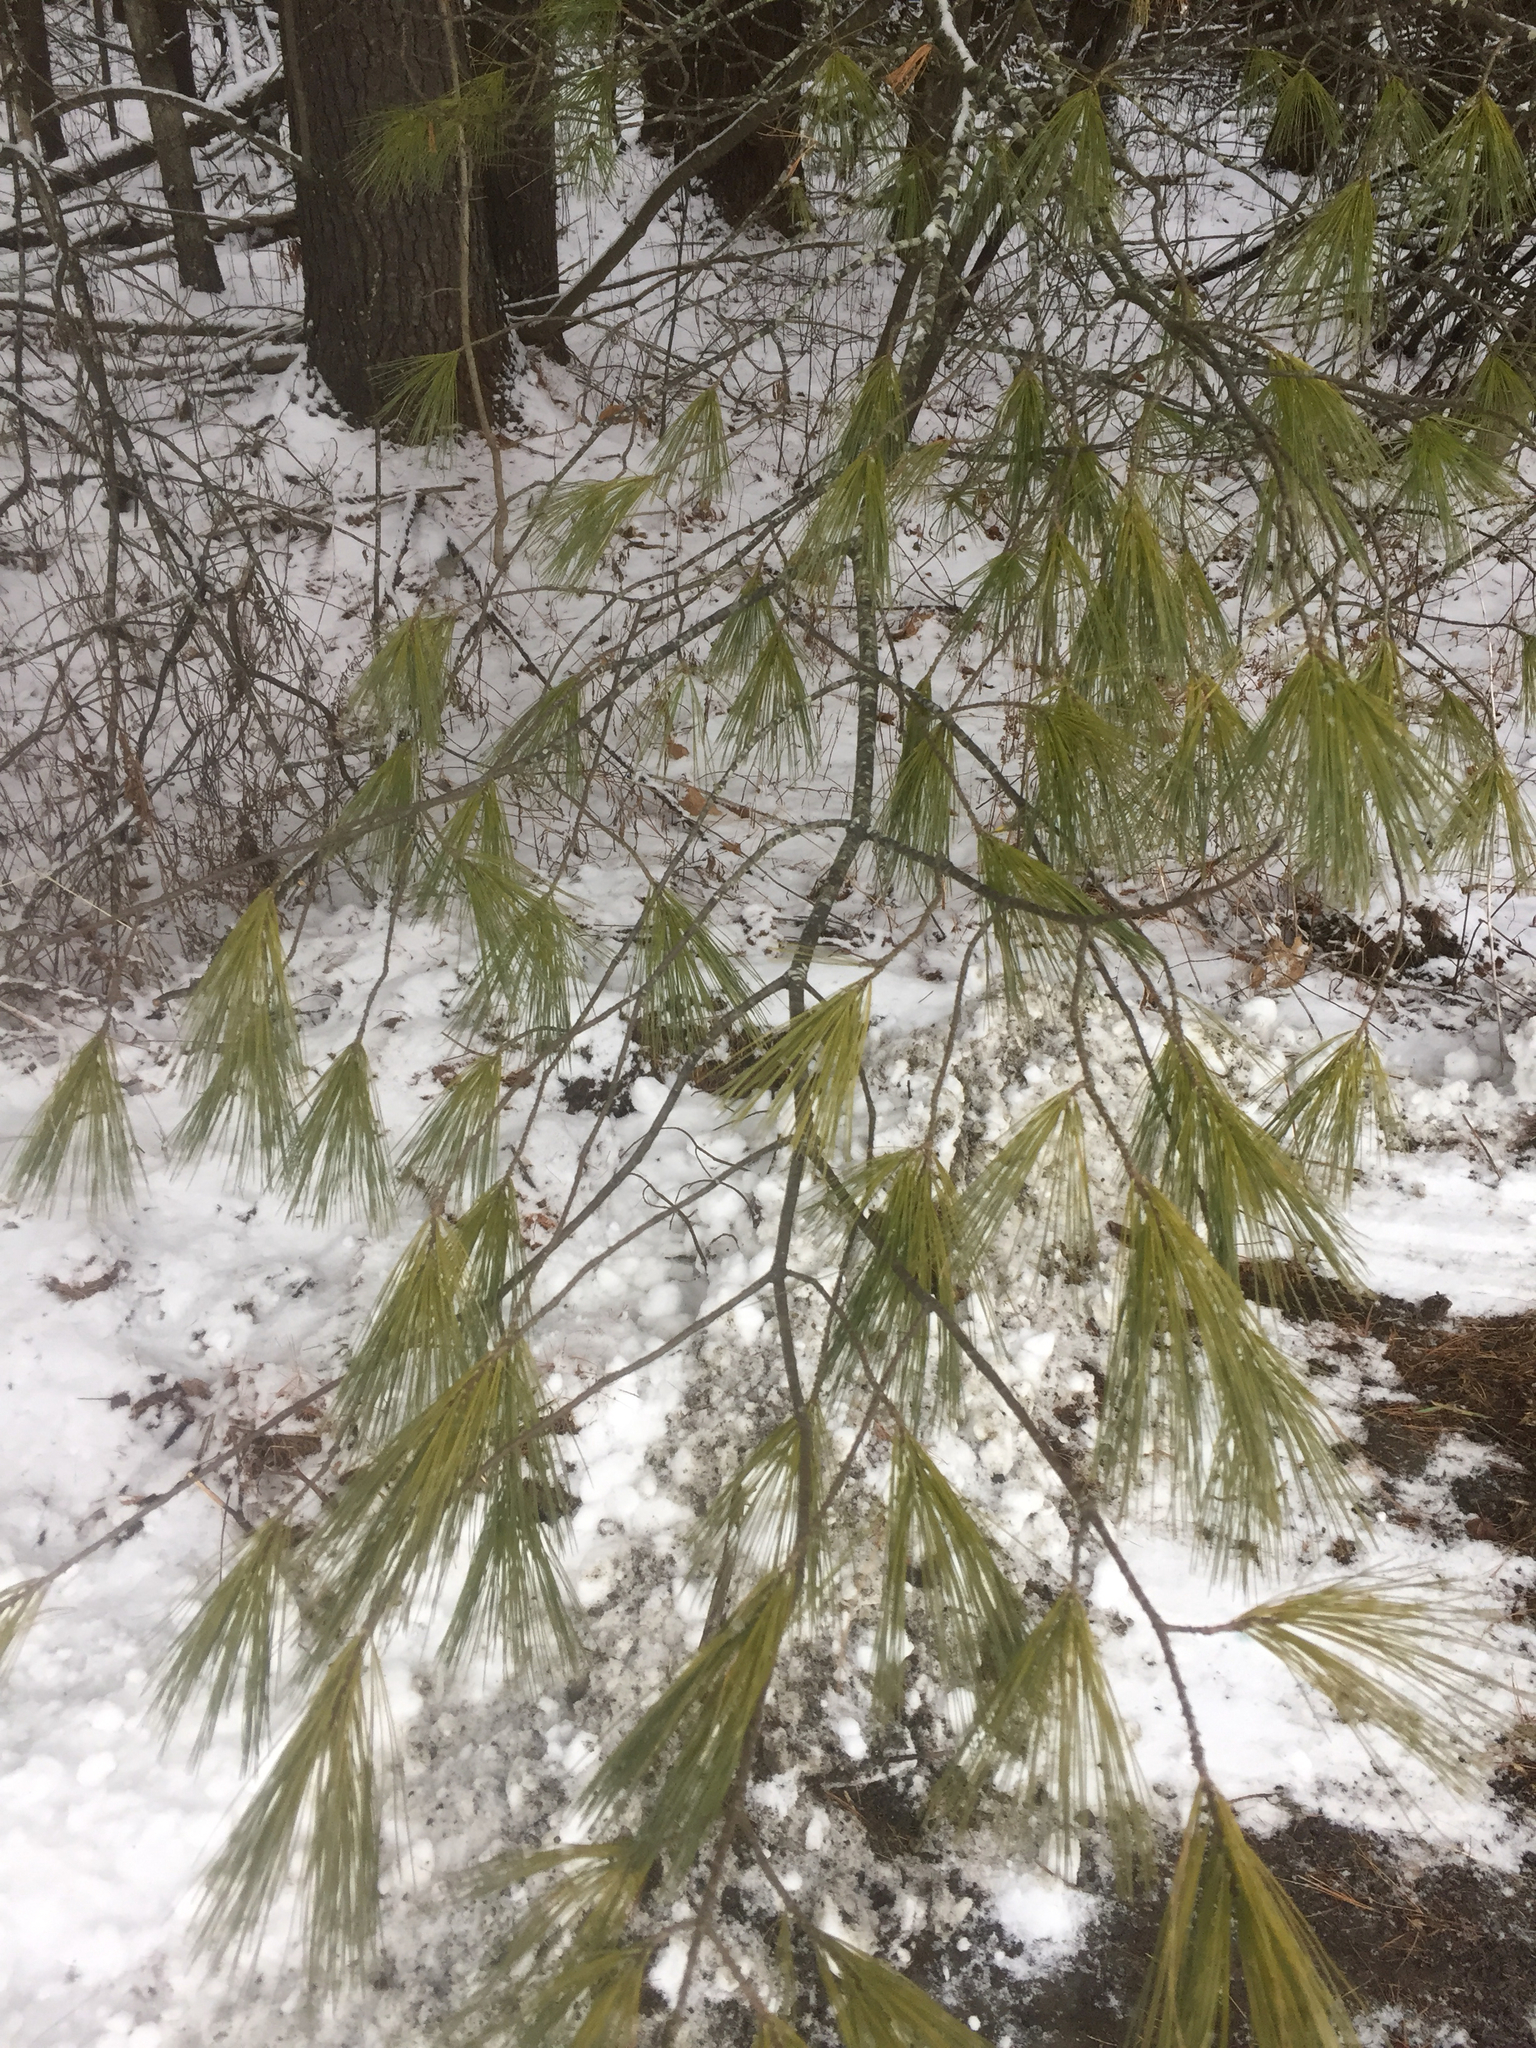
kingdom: Plantae
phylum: Tracheophyta
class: Pinopsida
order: Pinales
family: Pinaceae
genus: Pinus
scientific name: Pinus strobus
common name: Weymouth pine
